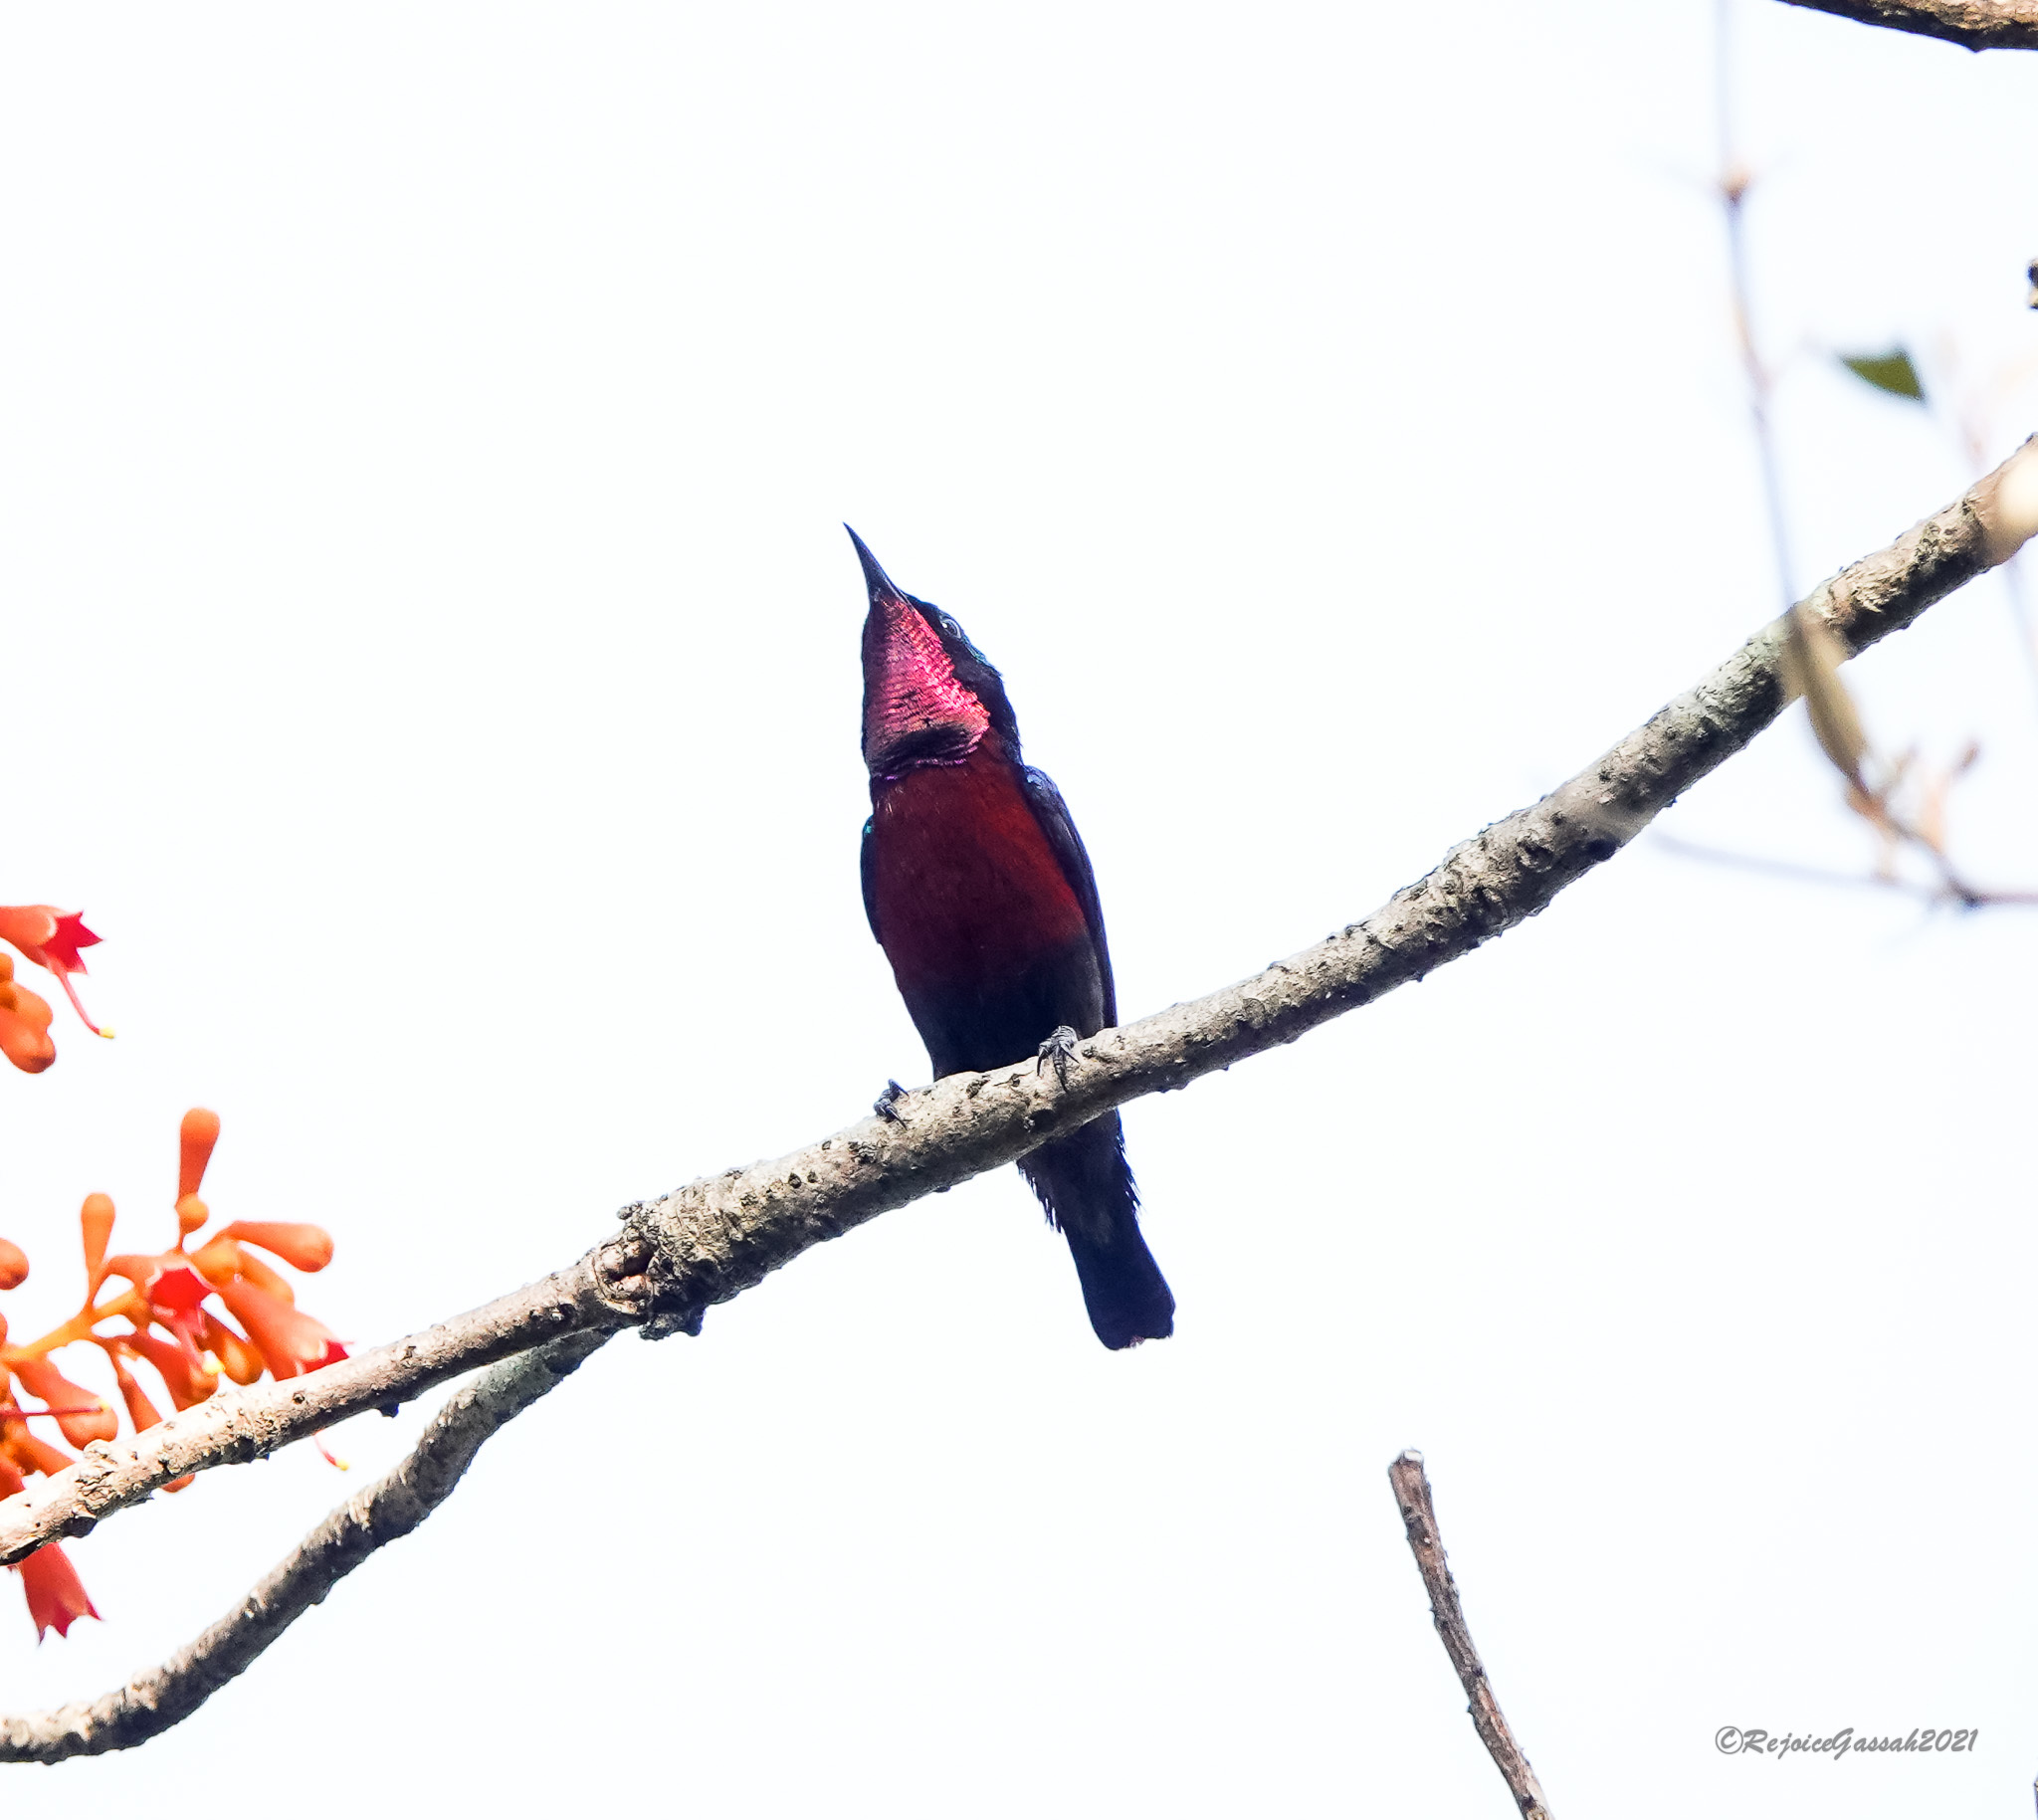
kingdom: Animalia
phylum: Chordata
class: Aves
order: Passeriformes
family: Nectariniidae
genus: Leptocoma
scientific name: Leptocoma brasiliana
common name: Van hasselt's sunbird
